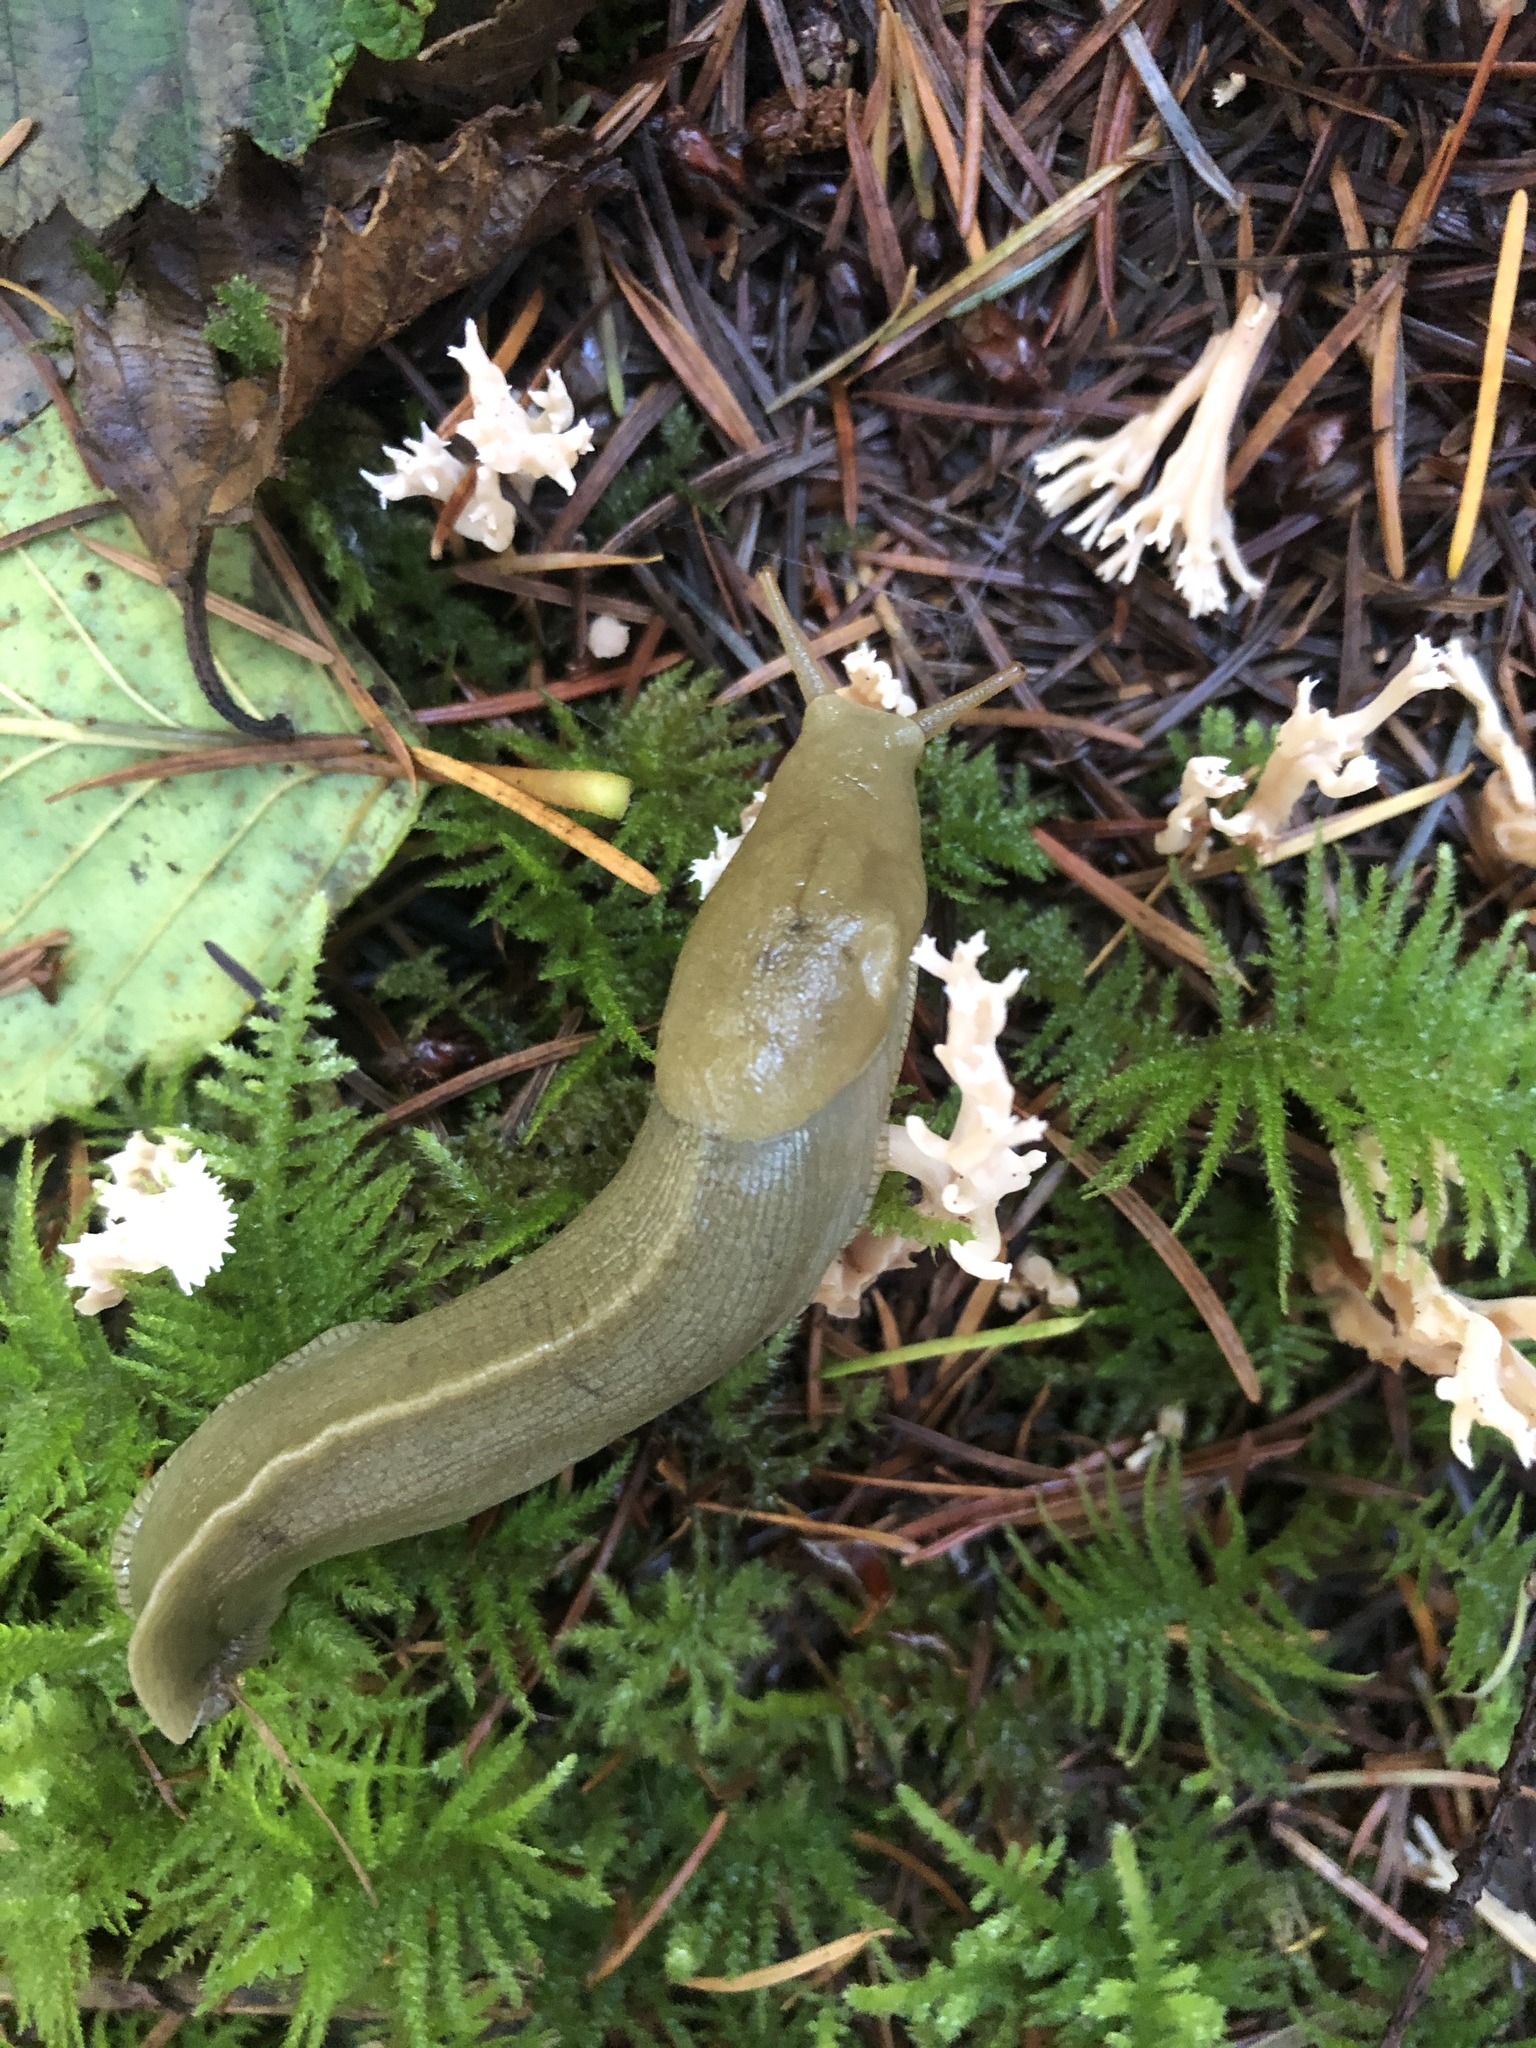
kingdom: Animalia
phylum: Mollusca
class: Gastropoda
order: Stylommatophora
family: Ariolimacidae
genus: Ariolimax
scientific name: Ariolimax columbianus
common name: Pacific banana slug
